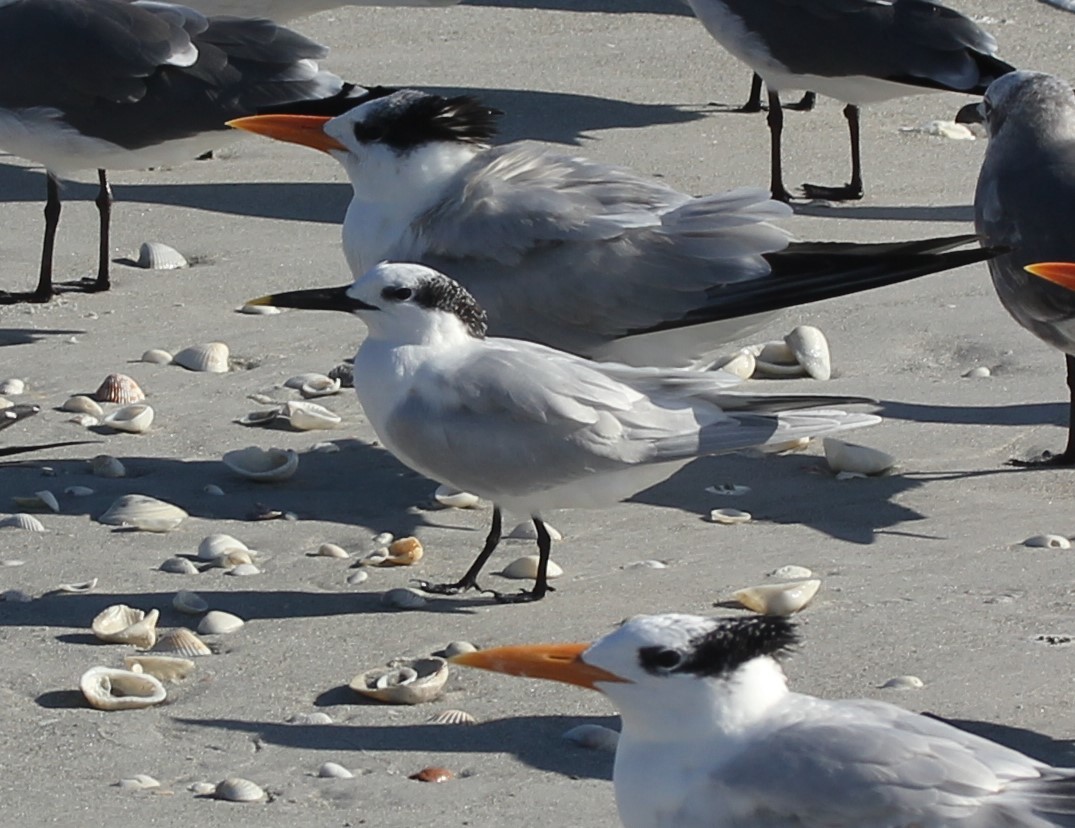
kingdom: Animalia
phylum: Chordata
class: Aves
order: Charadriiformes
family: Laridae
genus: Thalasseus
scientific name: Thalasseus sandvicensis
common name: Sandwich tern
